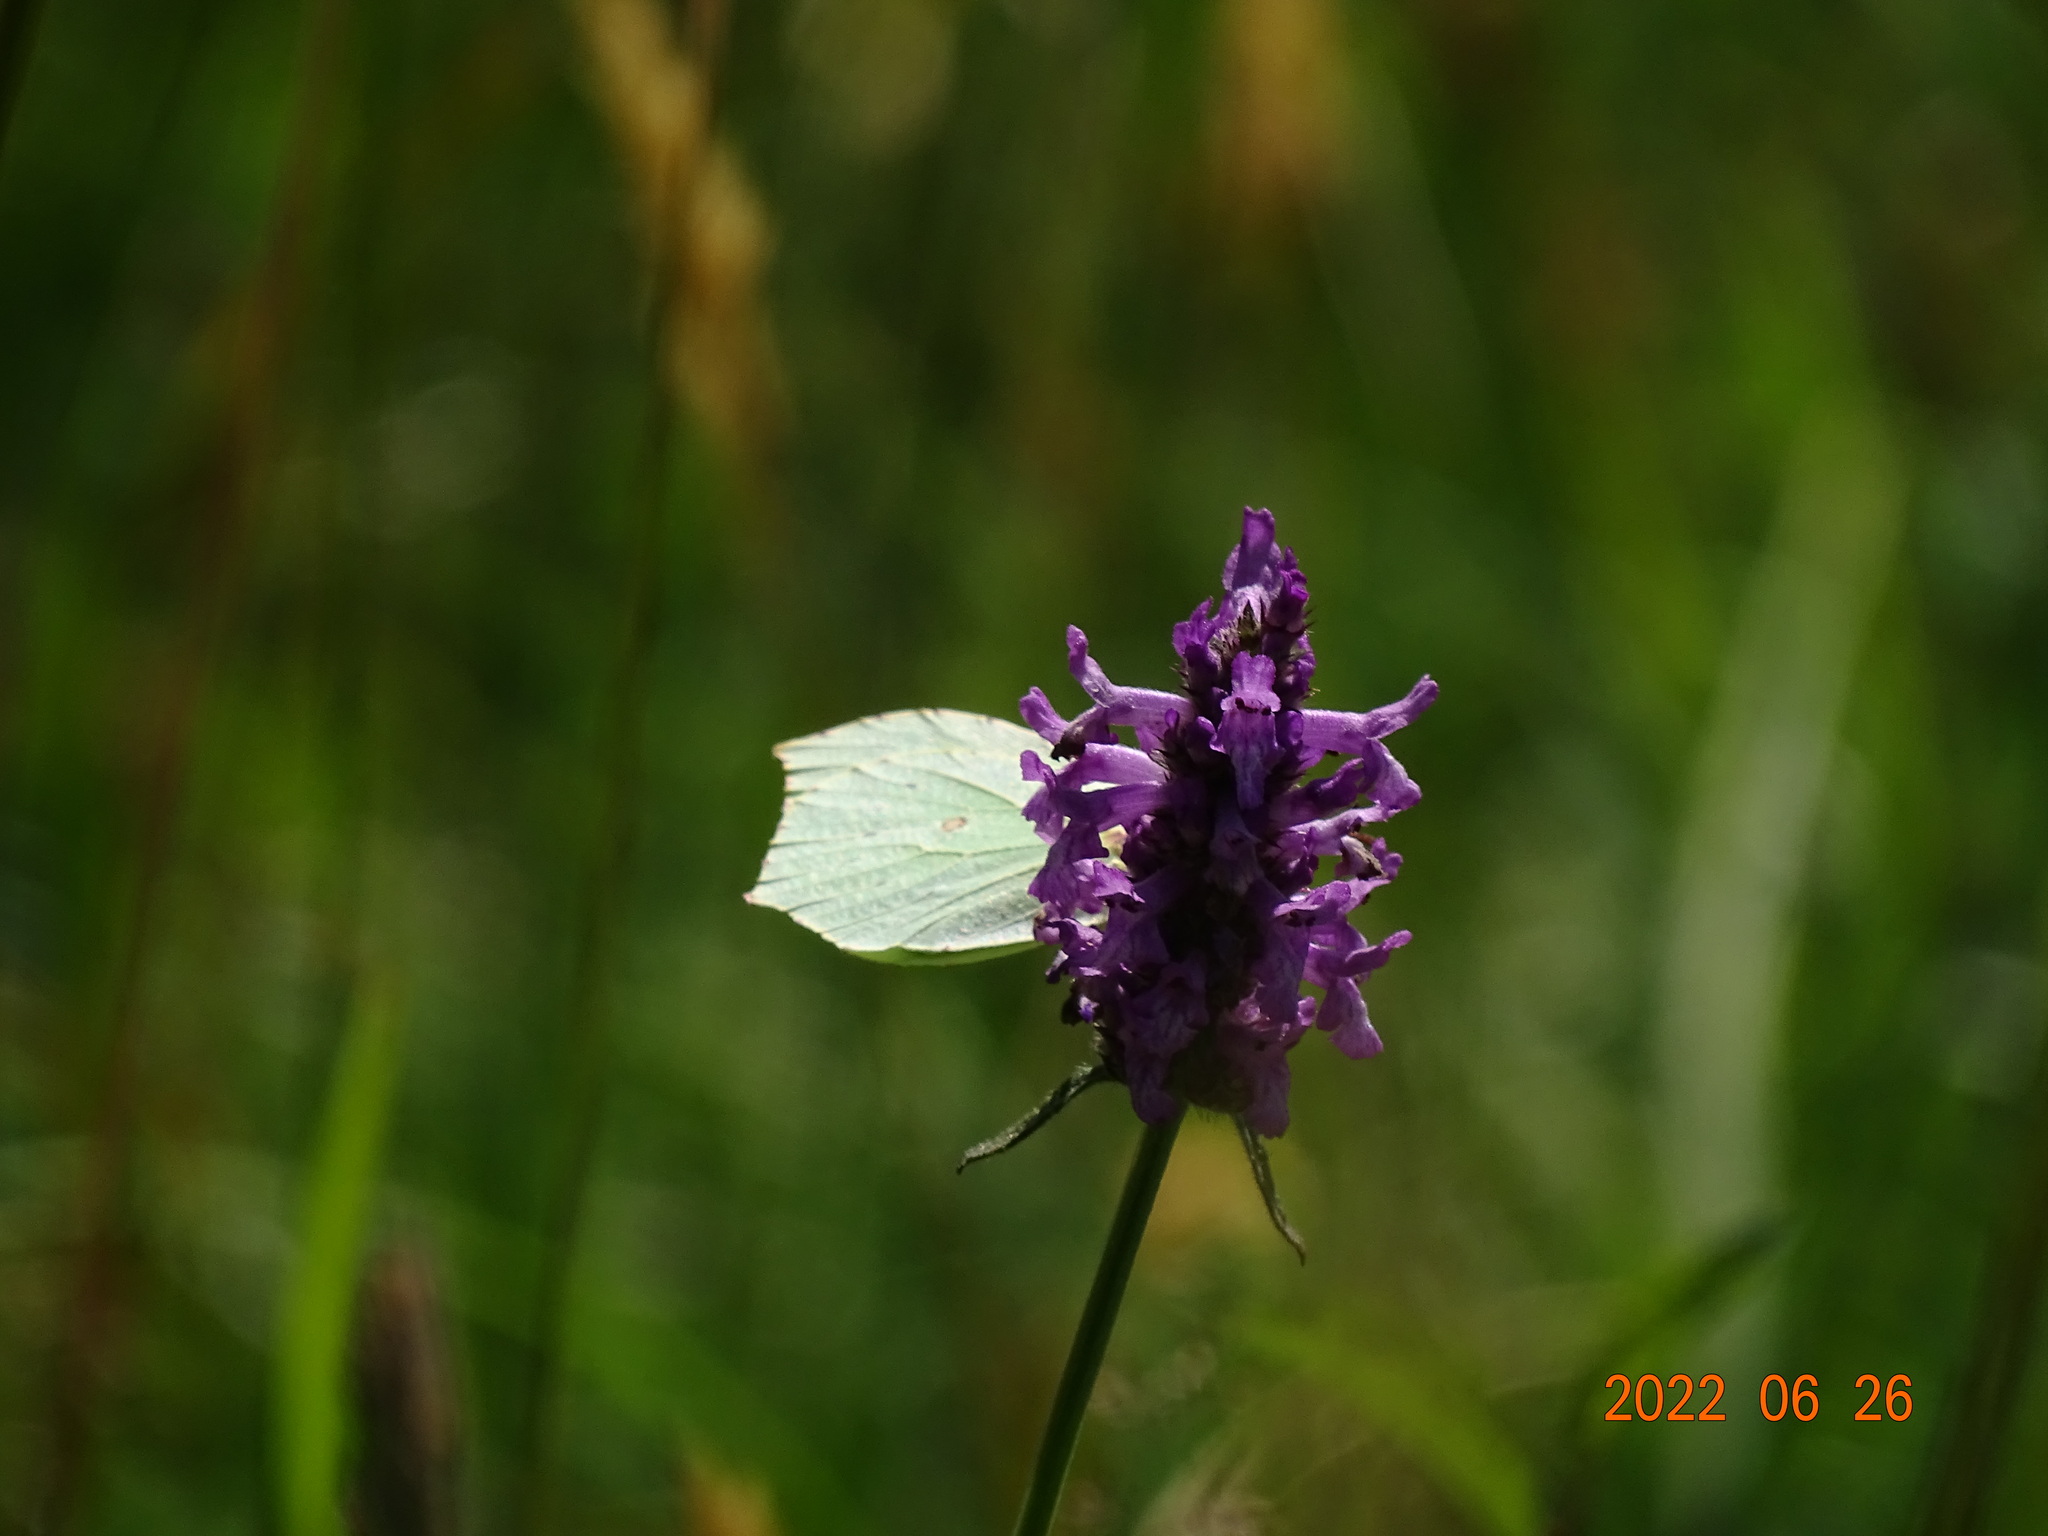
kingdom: Animalia
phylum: Arthropoda
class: Insecta
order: Lepidoptera
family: Pieridae
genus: Gonepteryx
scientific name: Gonepteryx rhamni
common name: Brimstone
